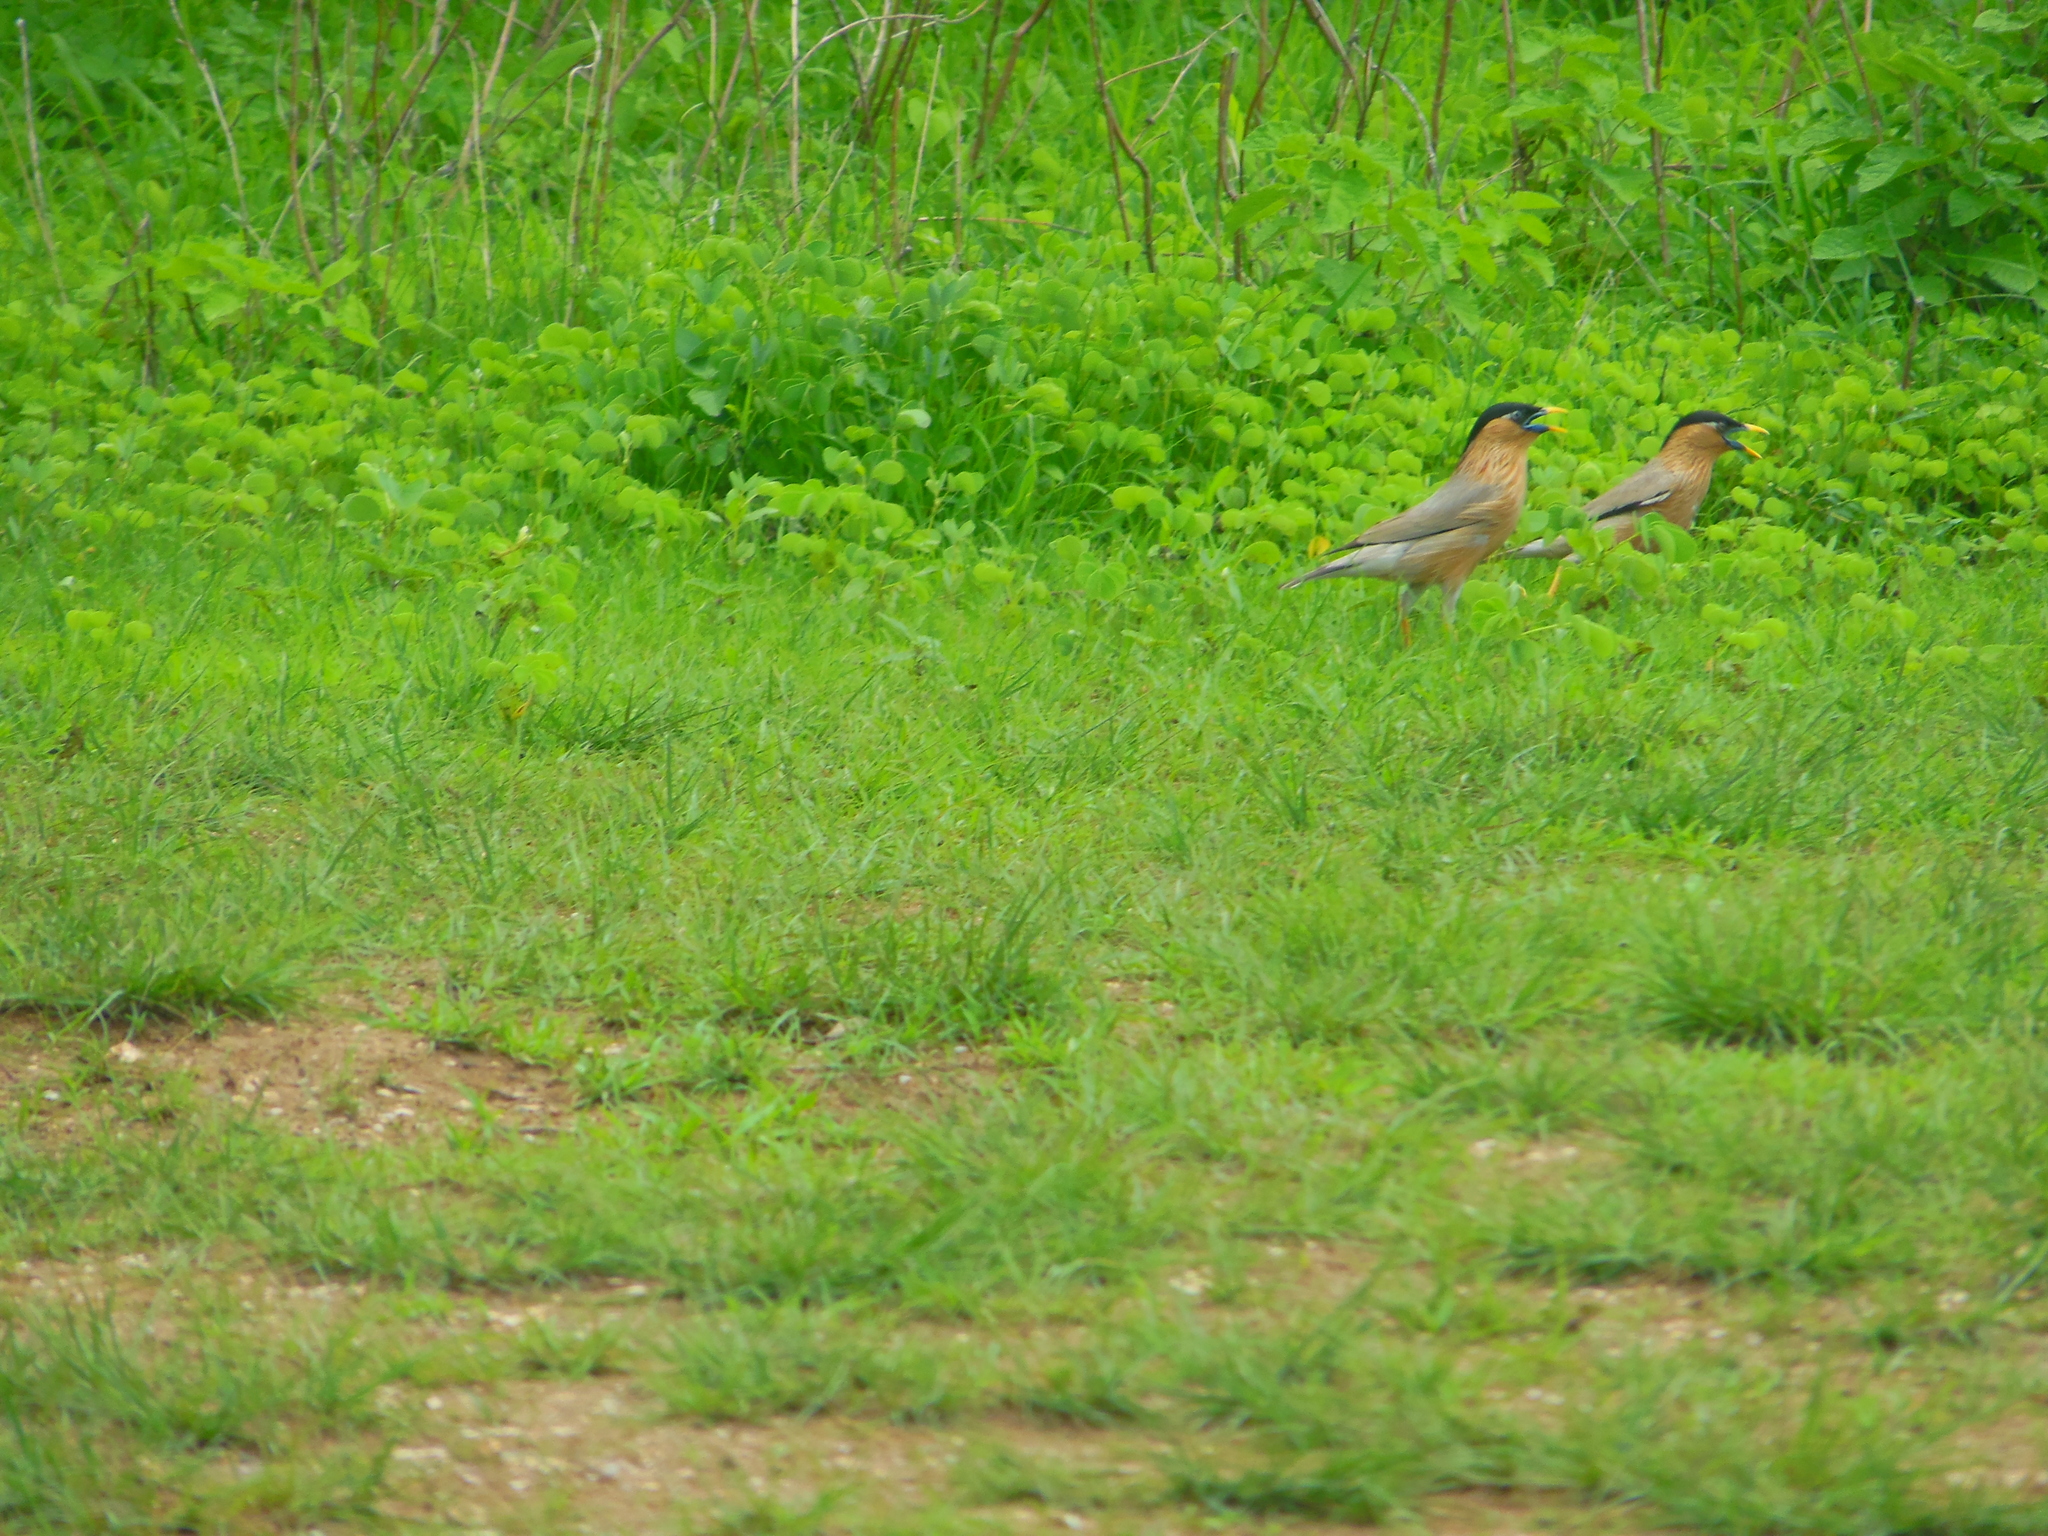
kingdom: Animalia
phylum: Chordata
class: Aves
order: Passeriformes
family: Sturnidae
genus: Sturnia
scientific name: Sturnia pagodarum
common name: Brahminy starling
